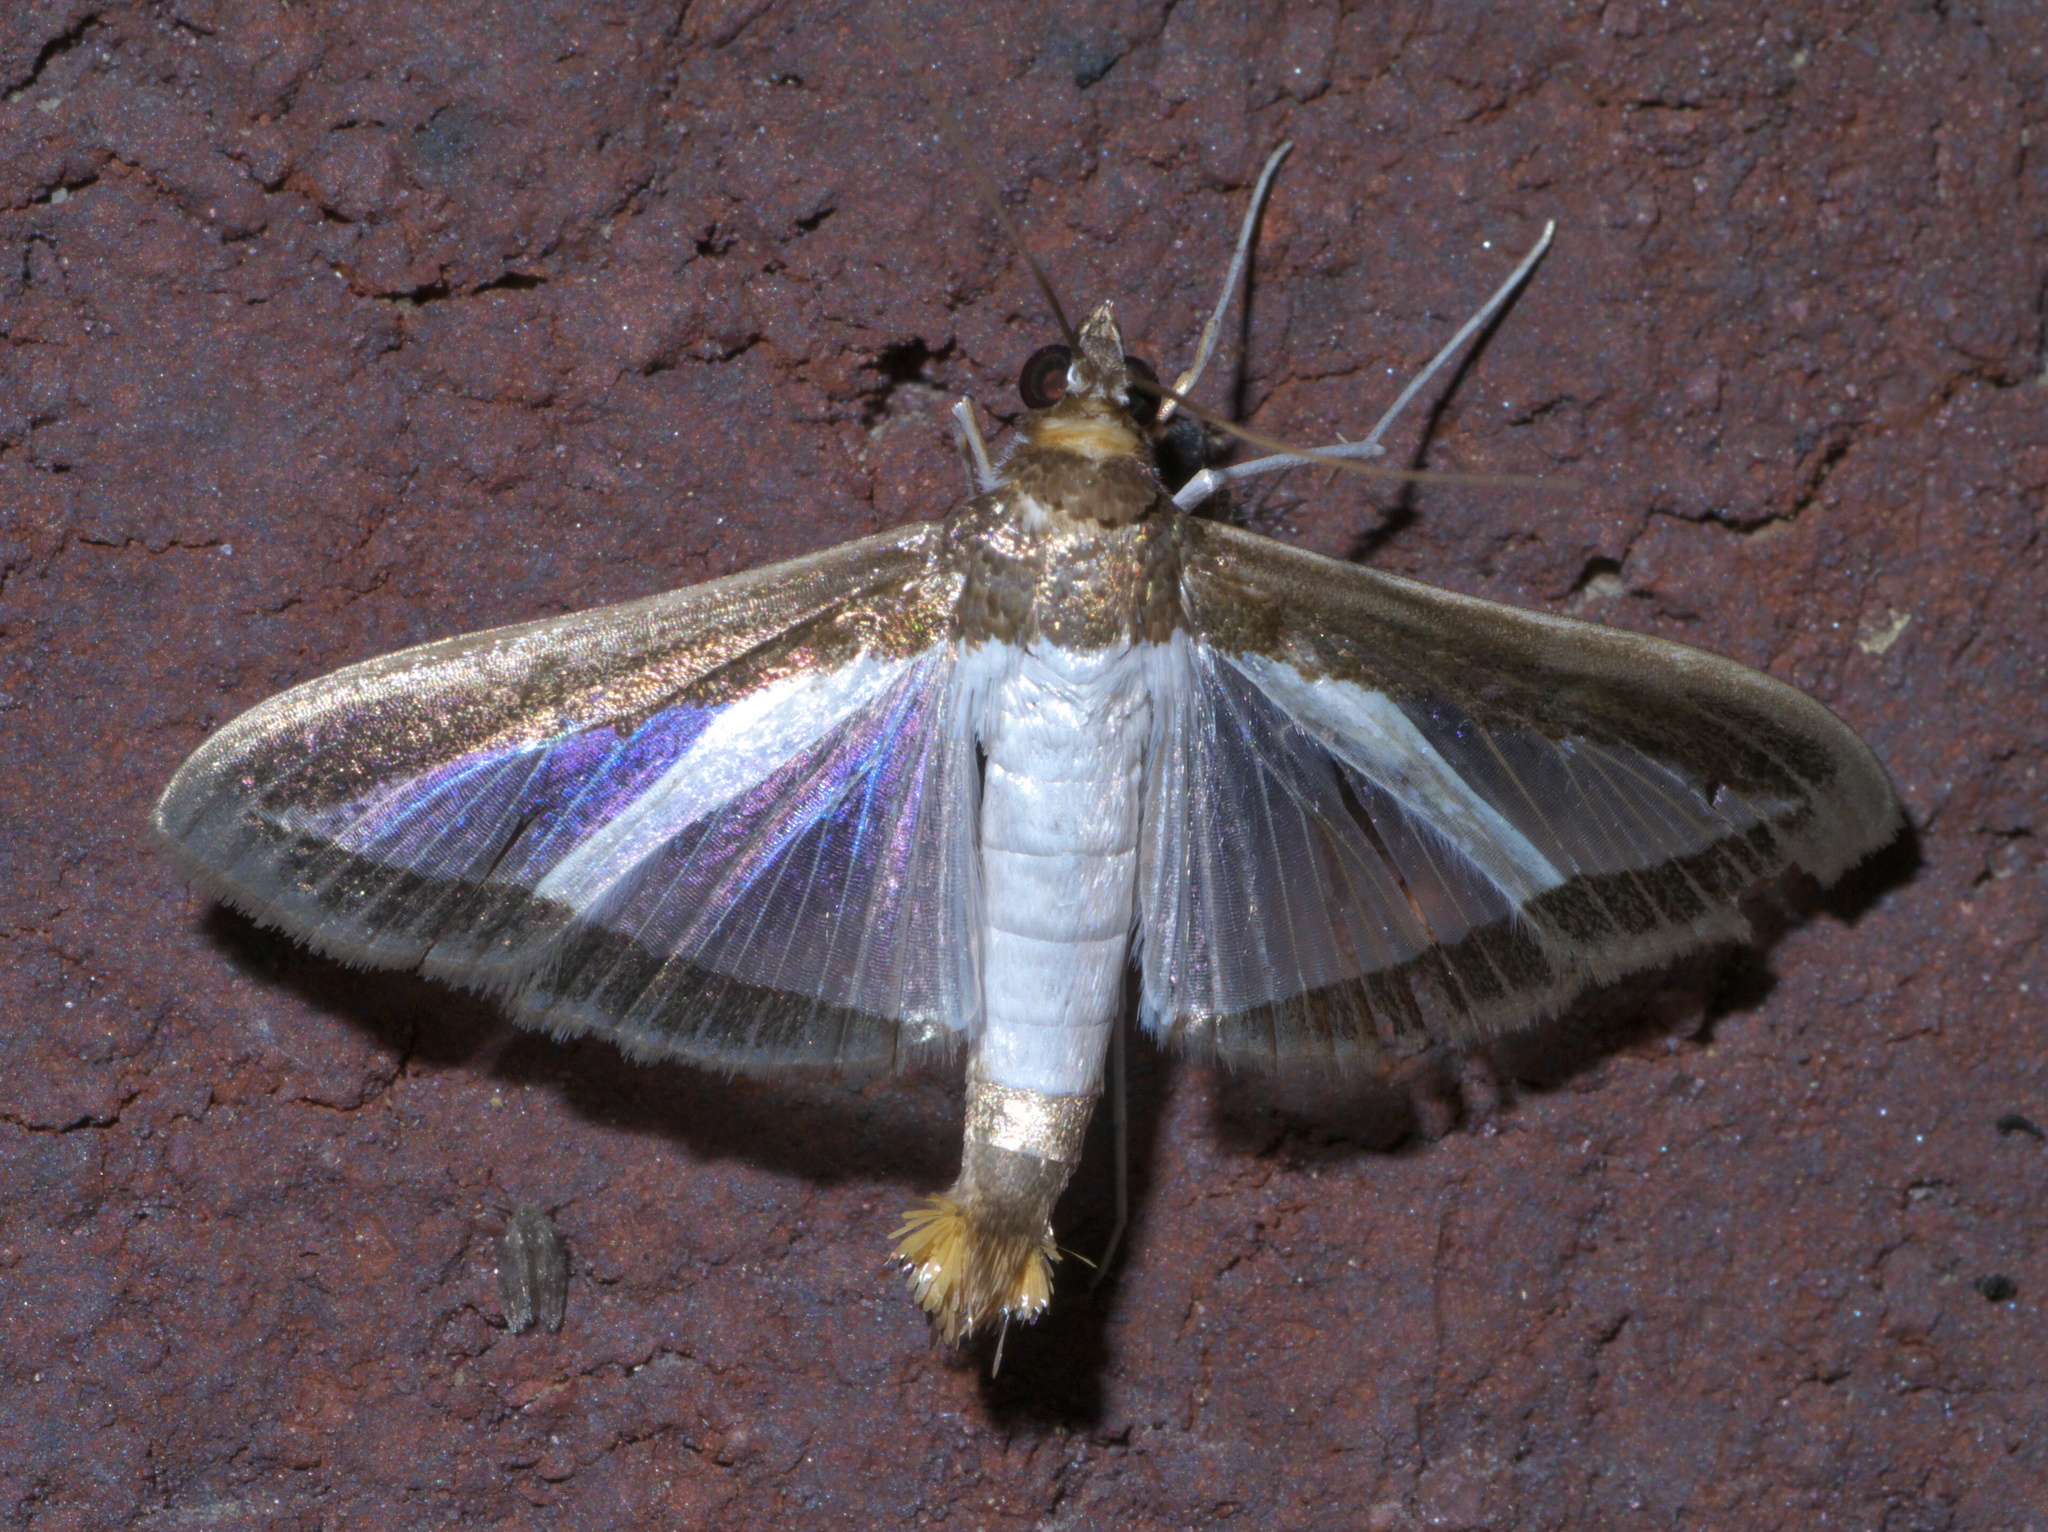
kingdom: Animalia
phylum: Arthropoda
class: Insecta
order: Lepidoptera
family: Crambidae
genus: Diaphania
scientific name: Diaphania hyalinata
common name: Melonworm
